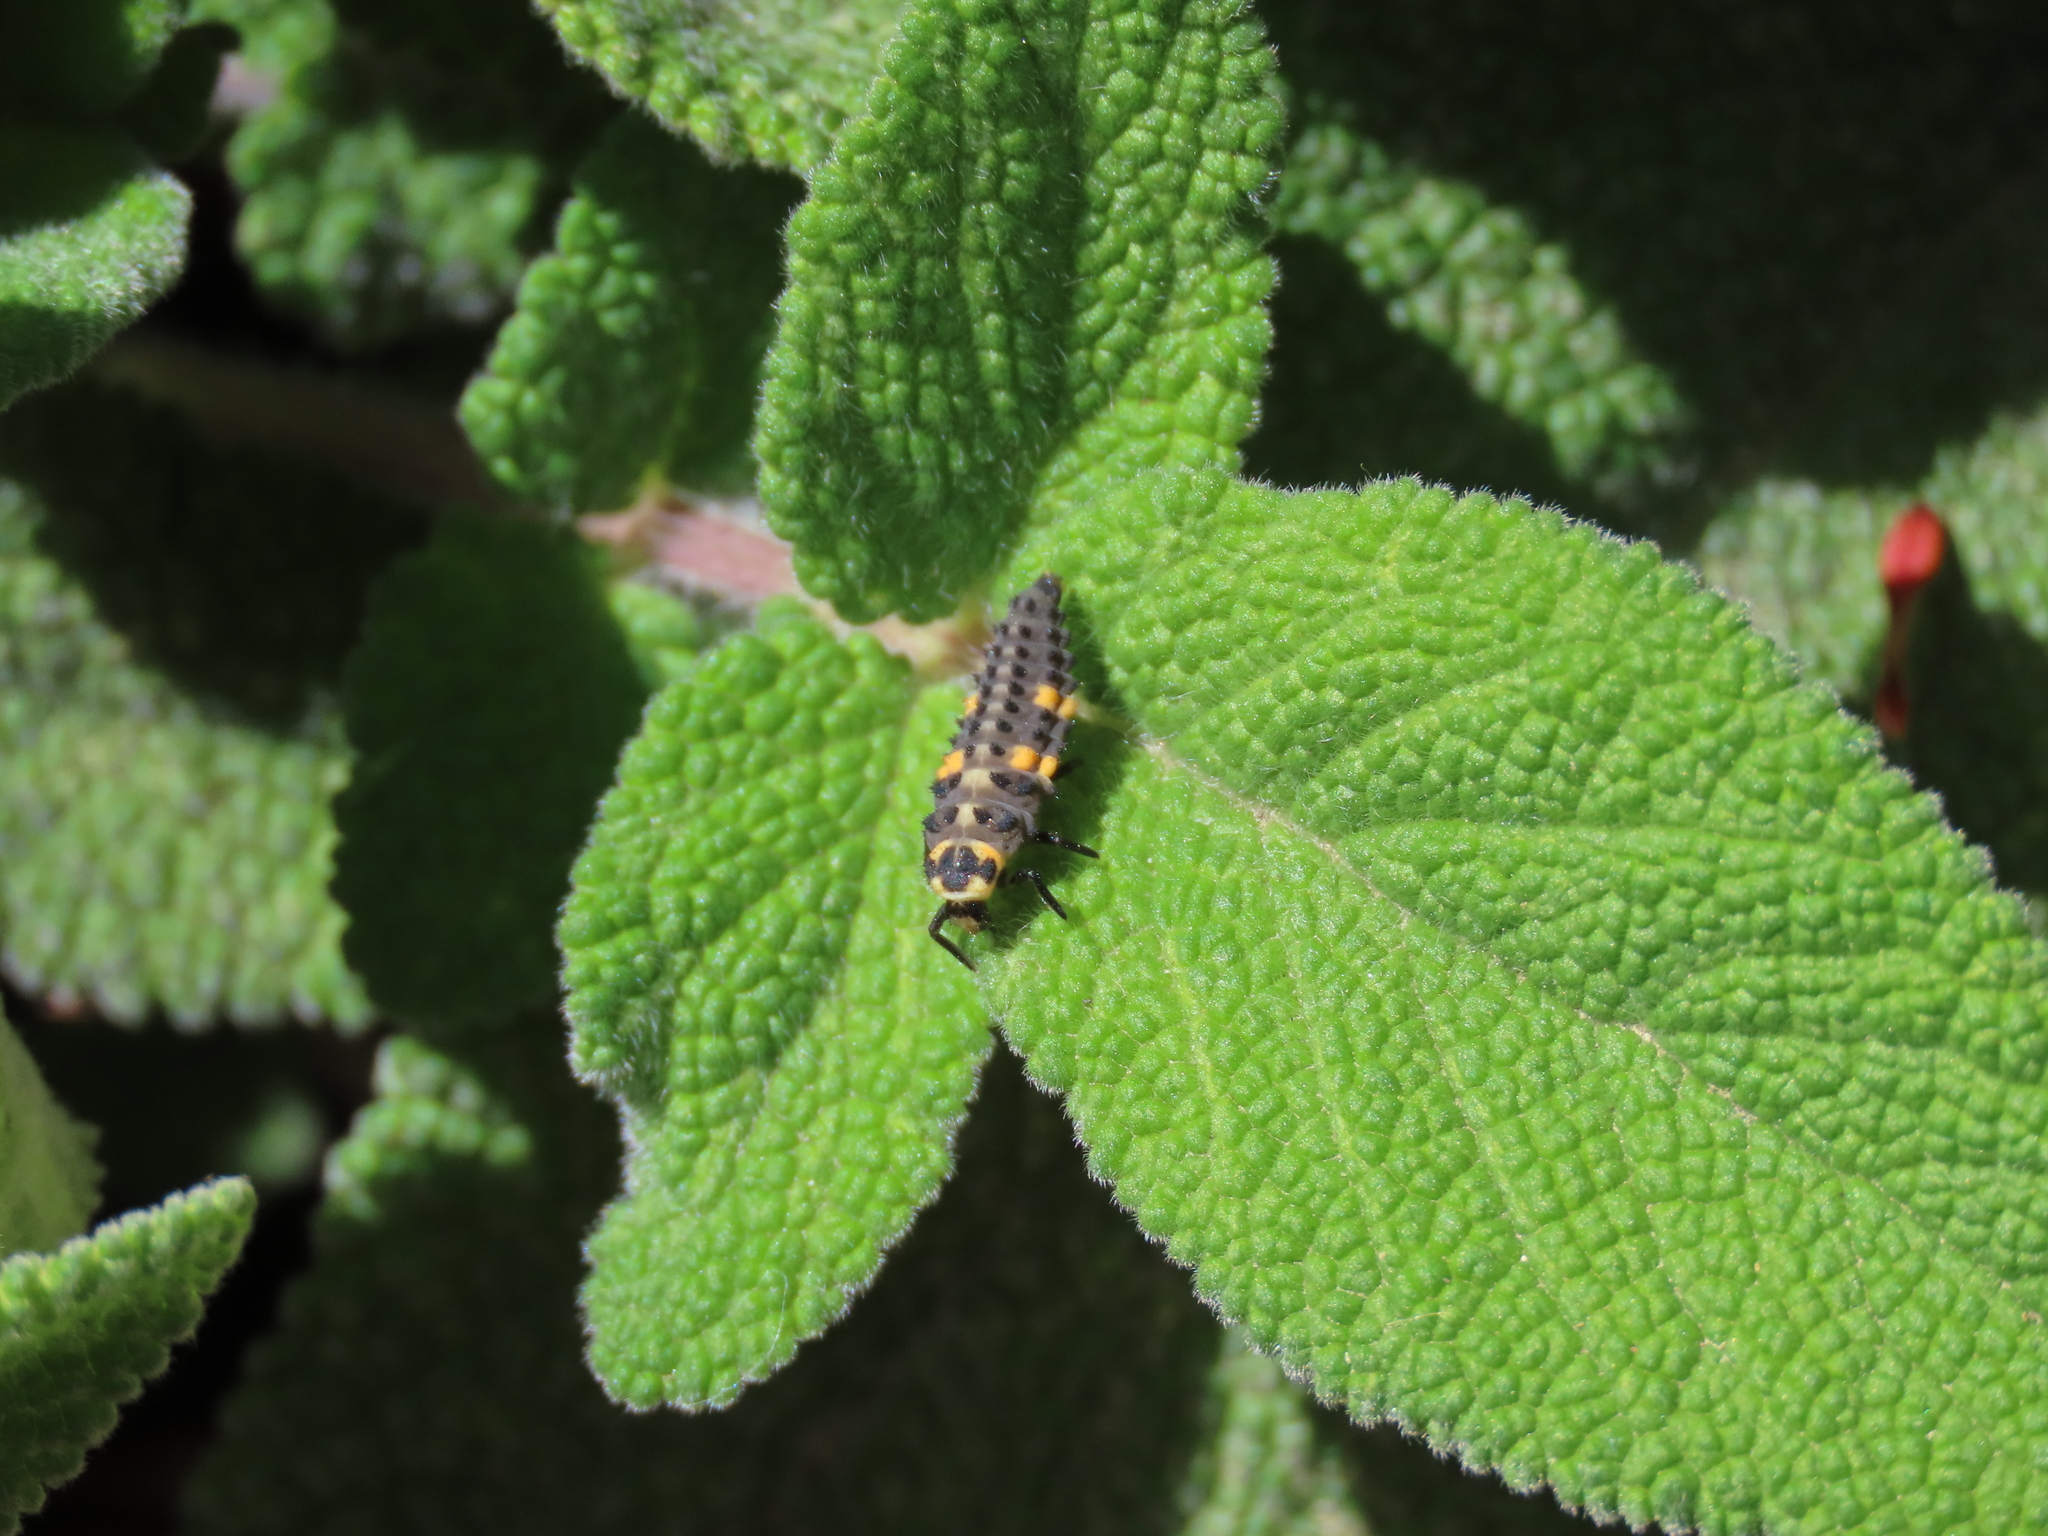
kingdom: Animalia
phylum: Arthropoda
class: Insecta
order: Coleoptera
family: Coccinellidae
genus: Coccinella
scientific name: Coccinella septempunctata
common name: Sevenspotted lady beetle
